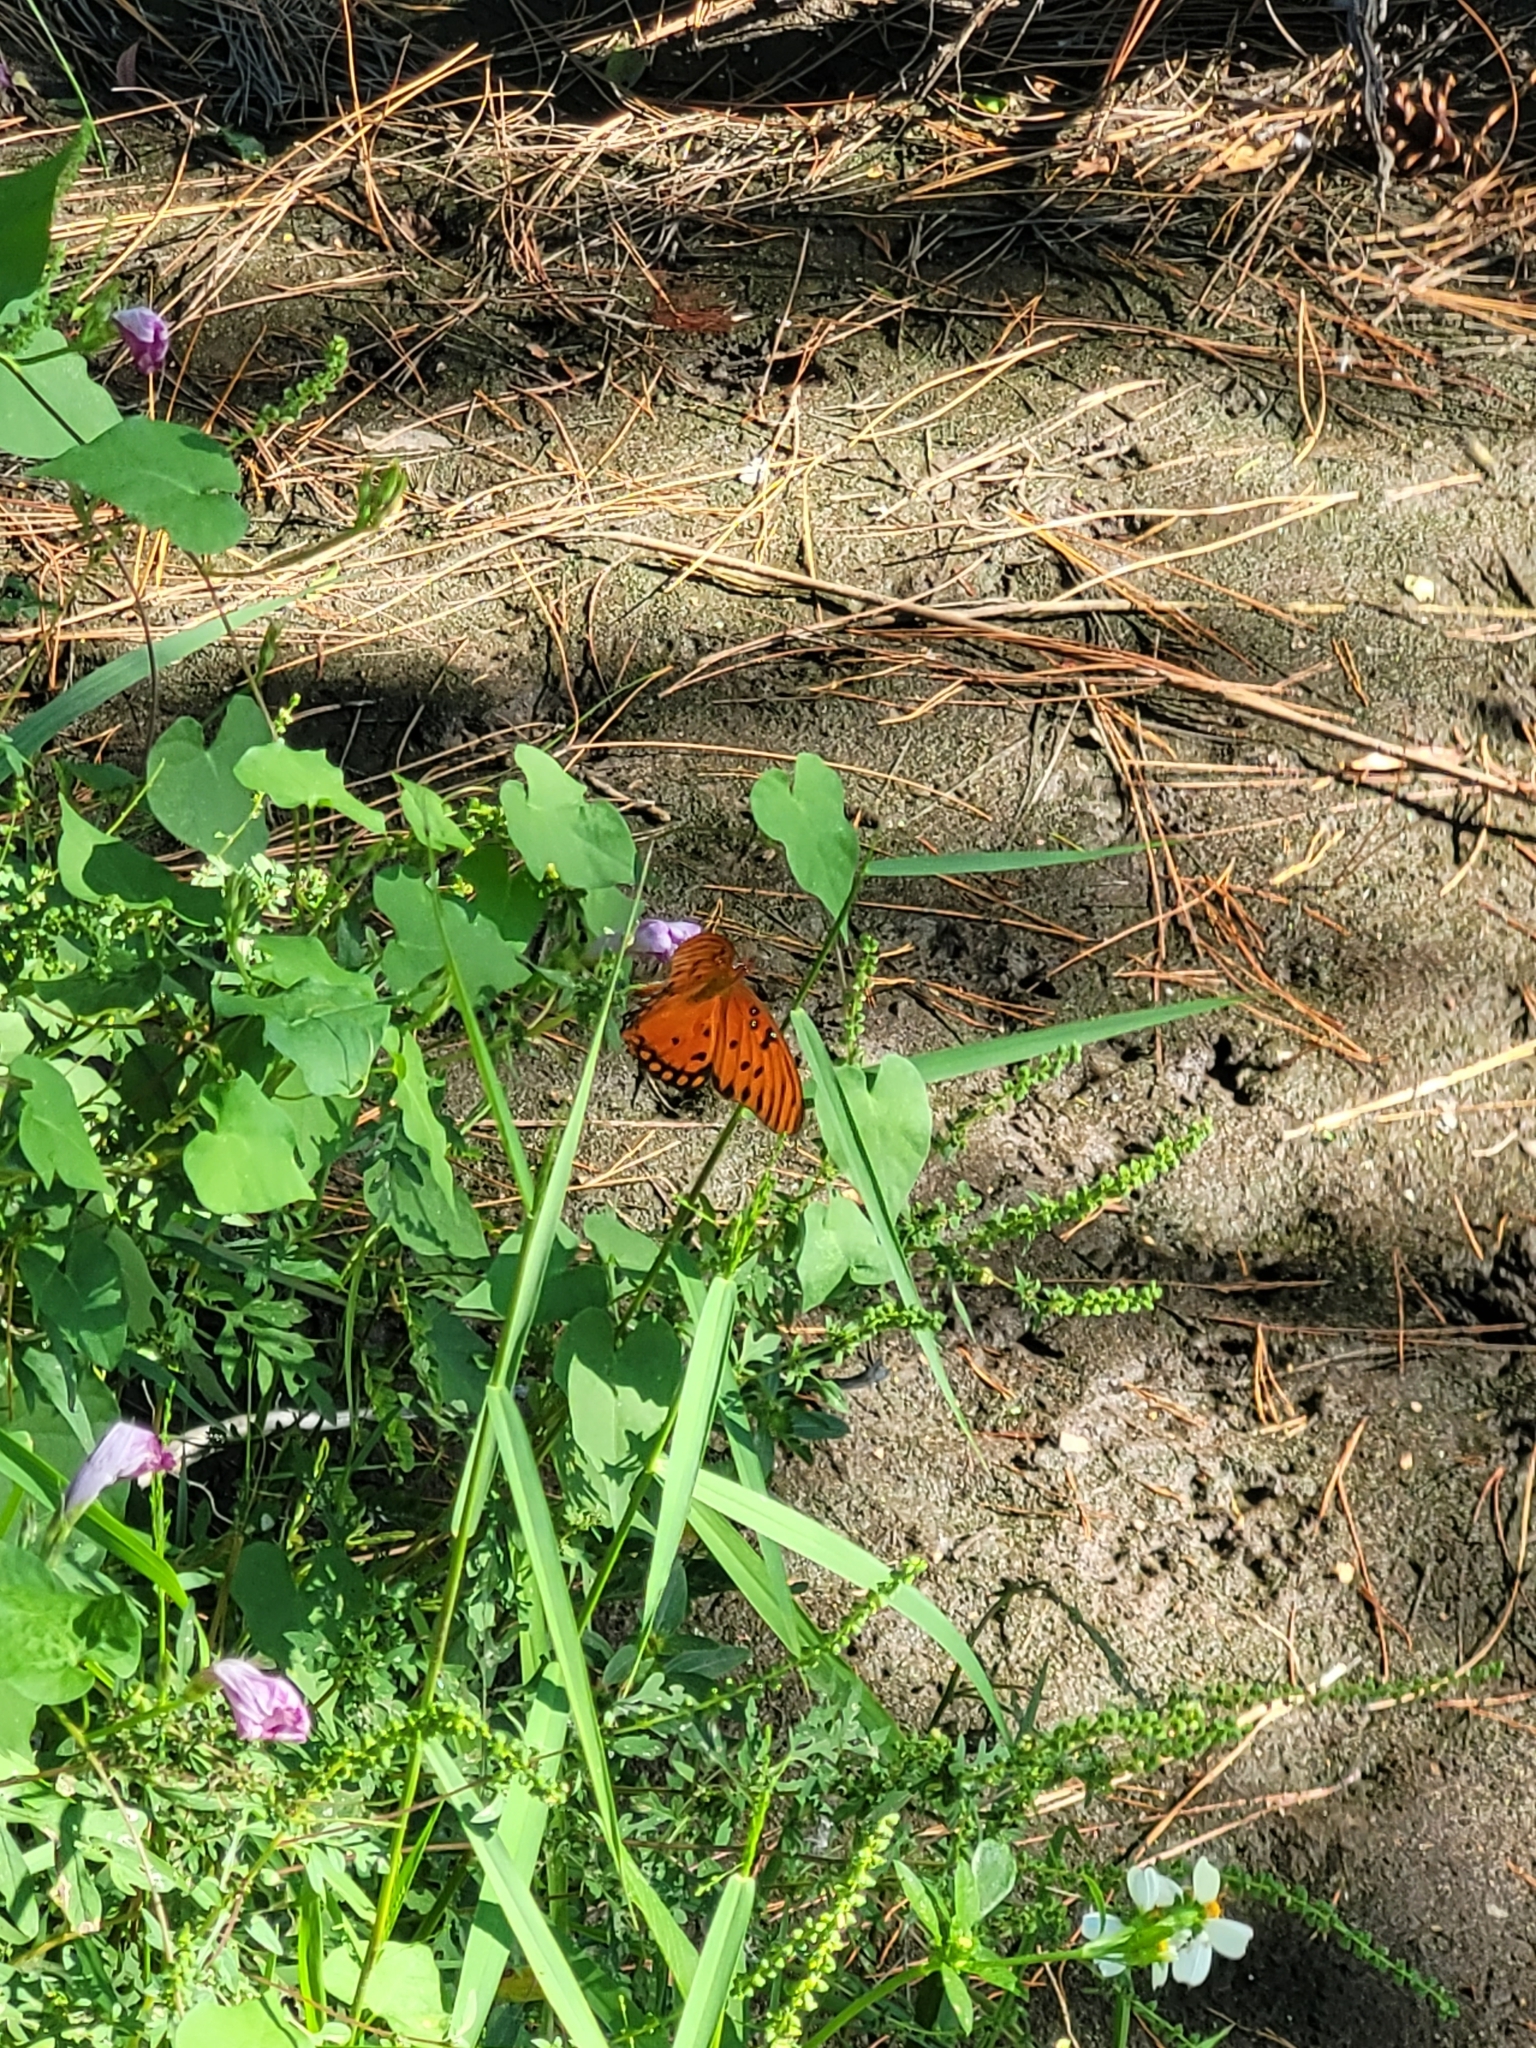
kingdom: Animalia
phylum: Arthropoda
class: Insecta
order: Lepidoptera
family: Nymphalidae
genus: Dione
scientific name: Dione vanillae
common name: Gulf fritillary
